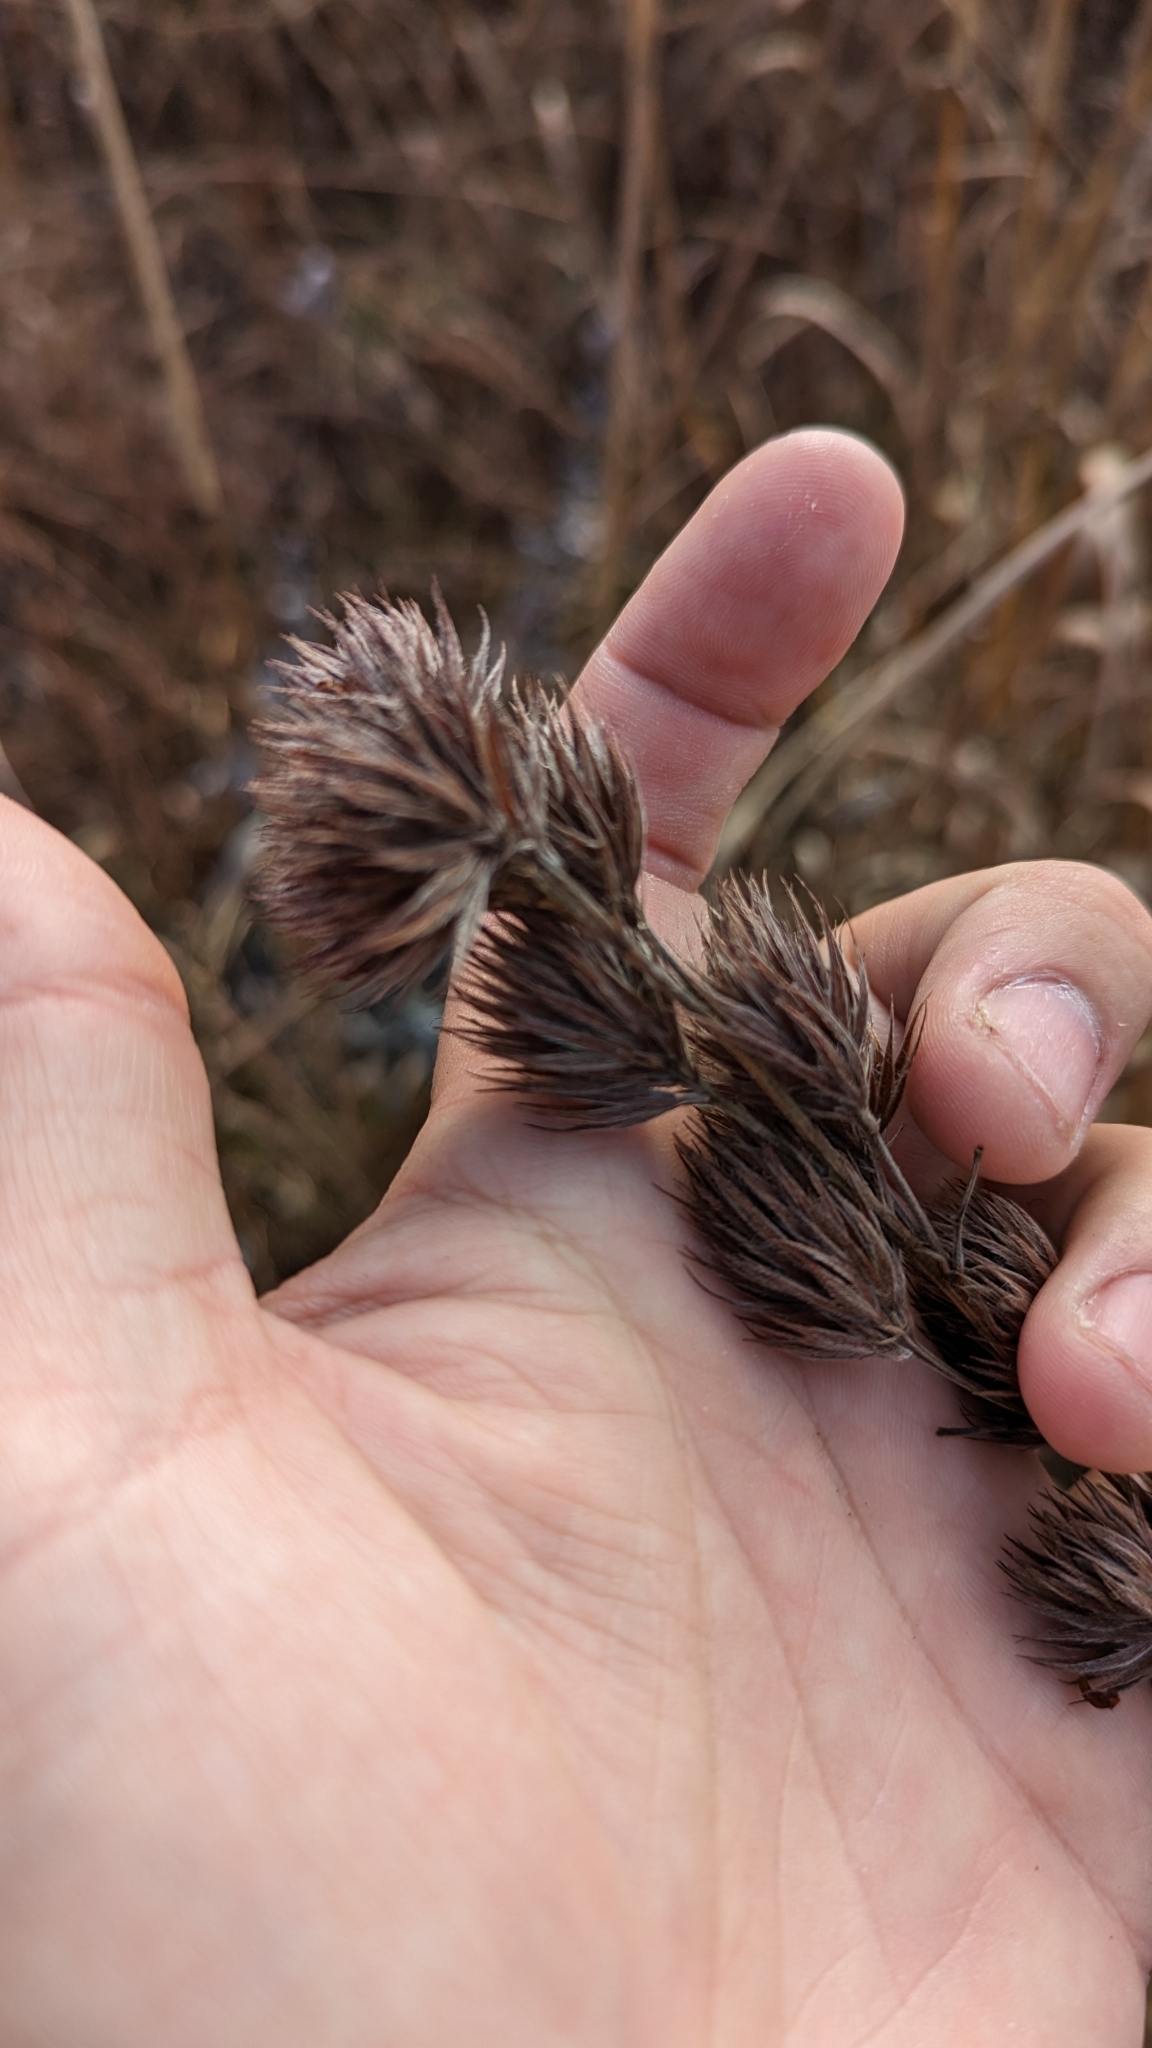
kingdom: Plantae
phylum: Tracheophyta
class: Magnoliopsida
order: Fabales
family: Fabaceae
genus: Lespedeza
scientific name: Lespedeza capitata
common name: Dusty clover
